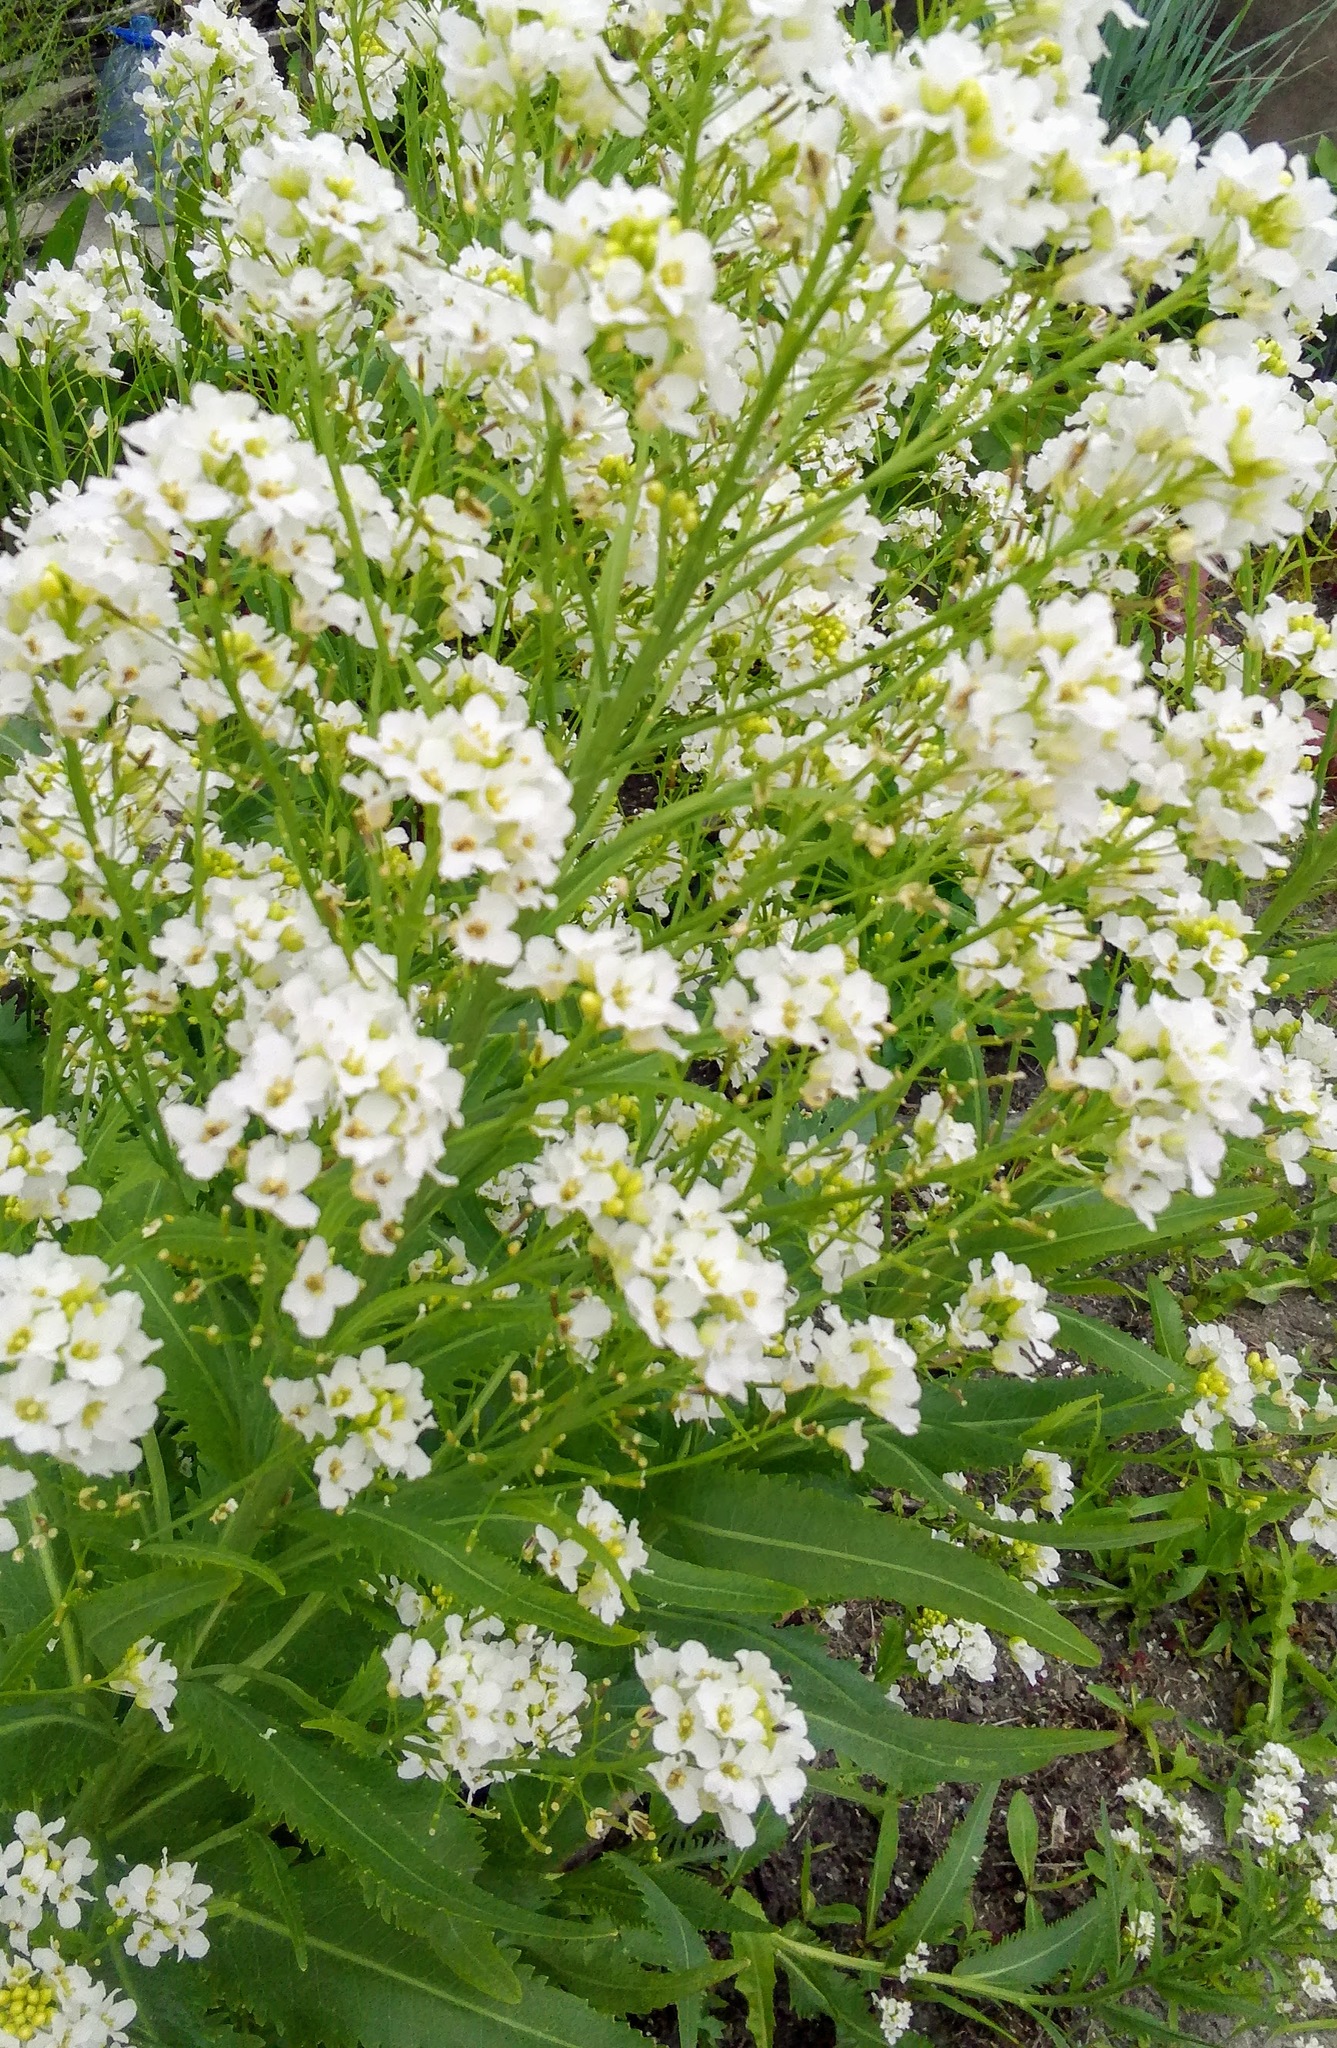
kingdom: Plantae
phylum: Tracheophyta
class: Magnoliopsida
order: Brassicales
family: Brassicaceae
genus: Armoracia
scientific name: Armoracia rusticana
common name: Horseradish
